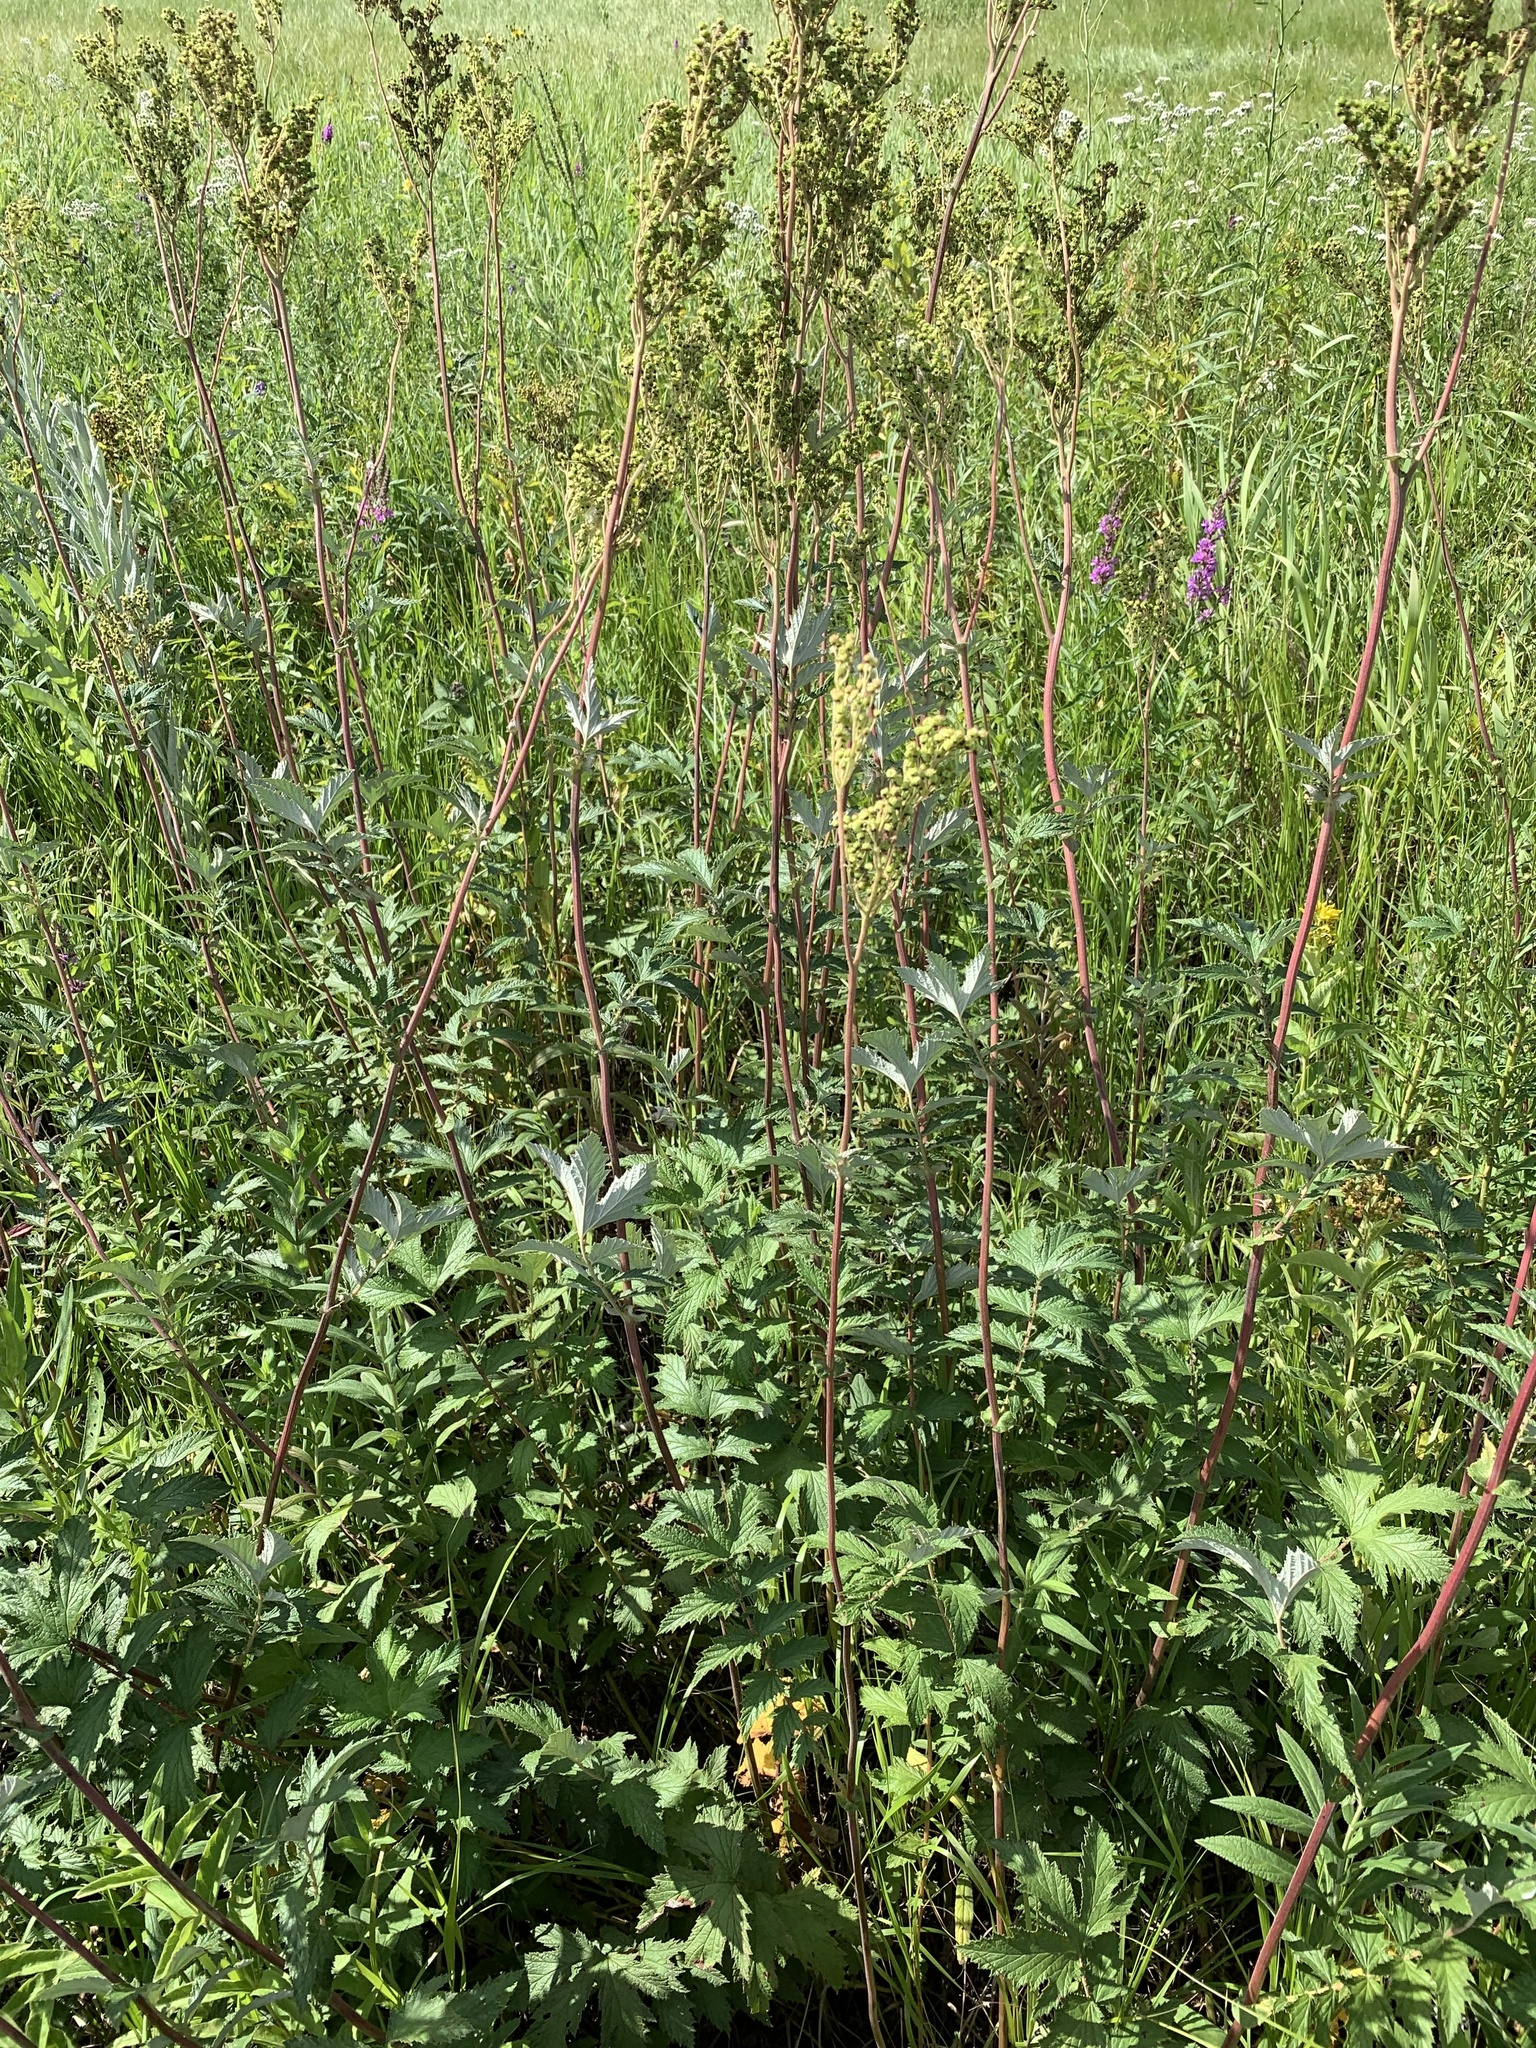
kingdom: Plantae
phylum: Tracheophyta
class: Magnoliopsida
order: Rosales
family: Rosaceae
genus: Filipendula
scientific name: Filipendula ulmaria
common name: Meadowsweet
